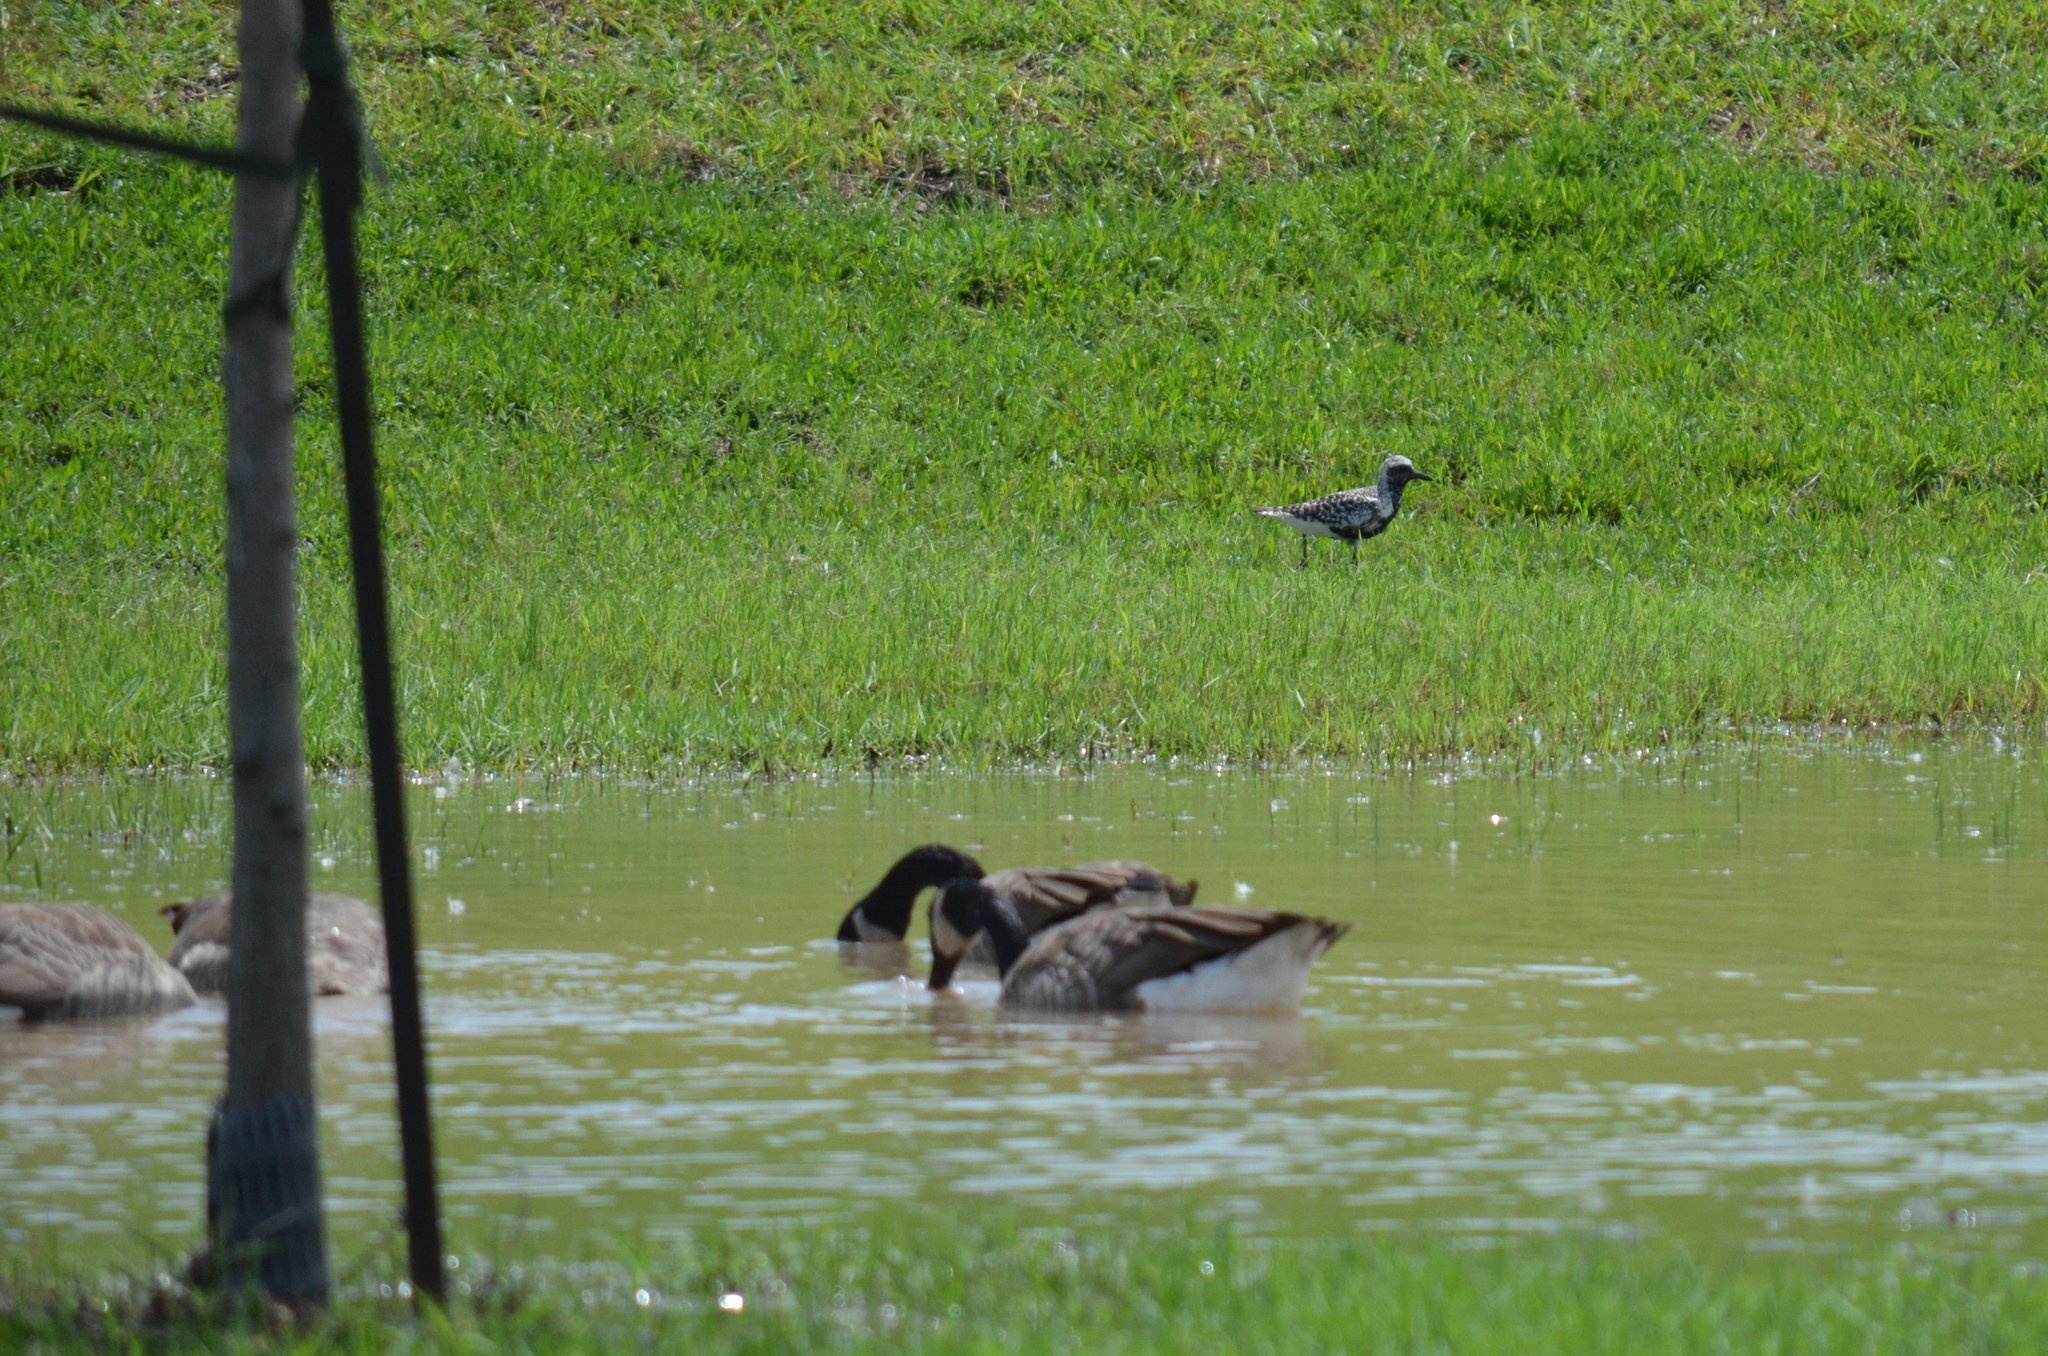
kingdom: Animalia
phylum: Chordata
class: Aves
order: Charadriiformes
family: Charadriidae
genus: Pluvialis
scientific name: Pluvialis squatarola
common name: Grey plover
